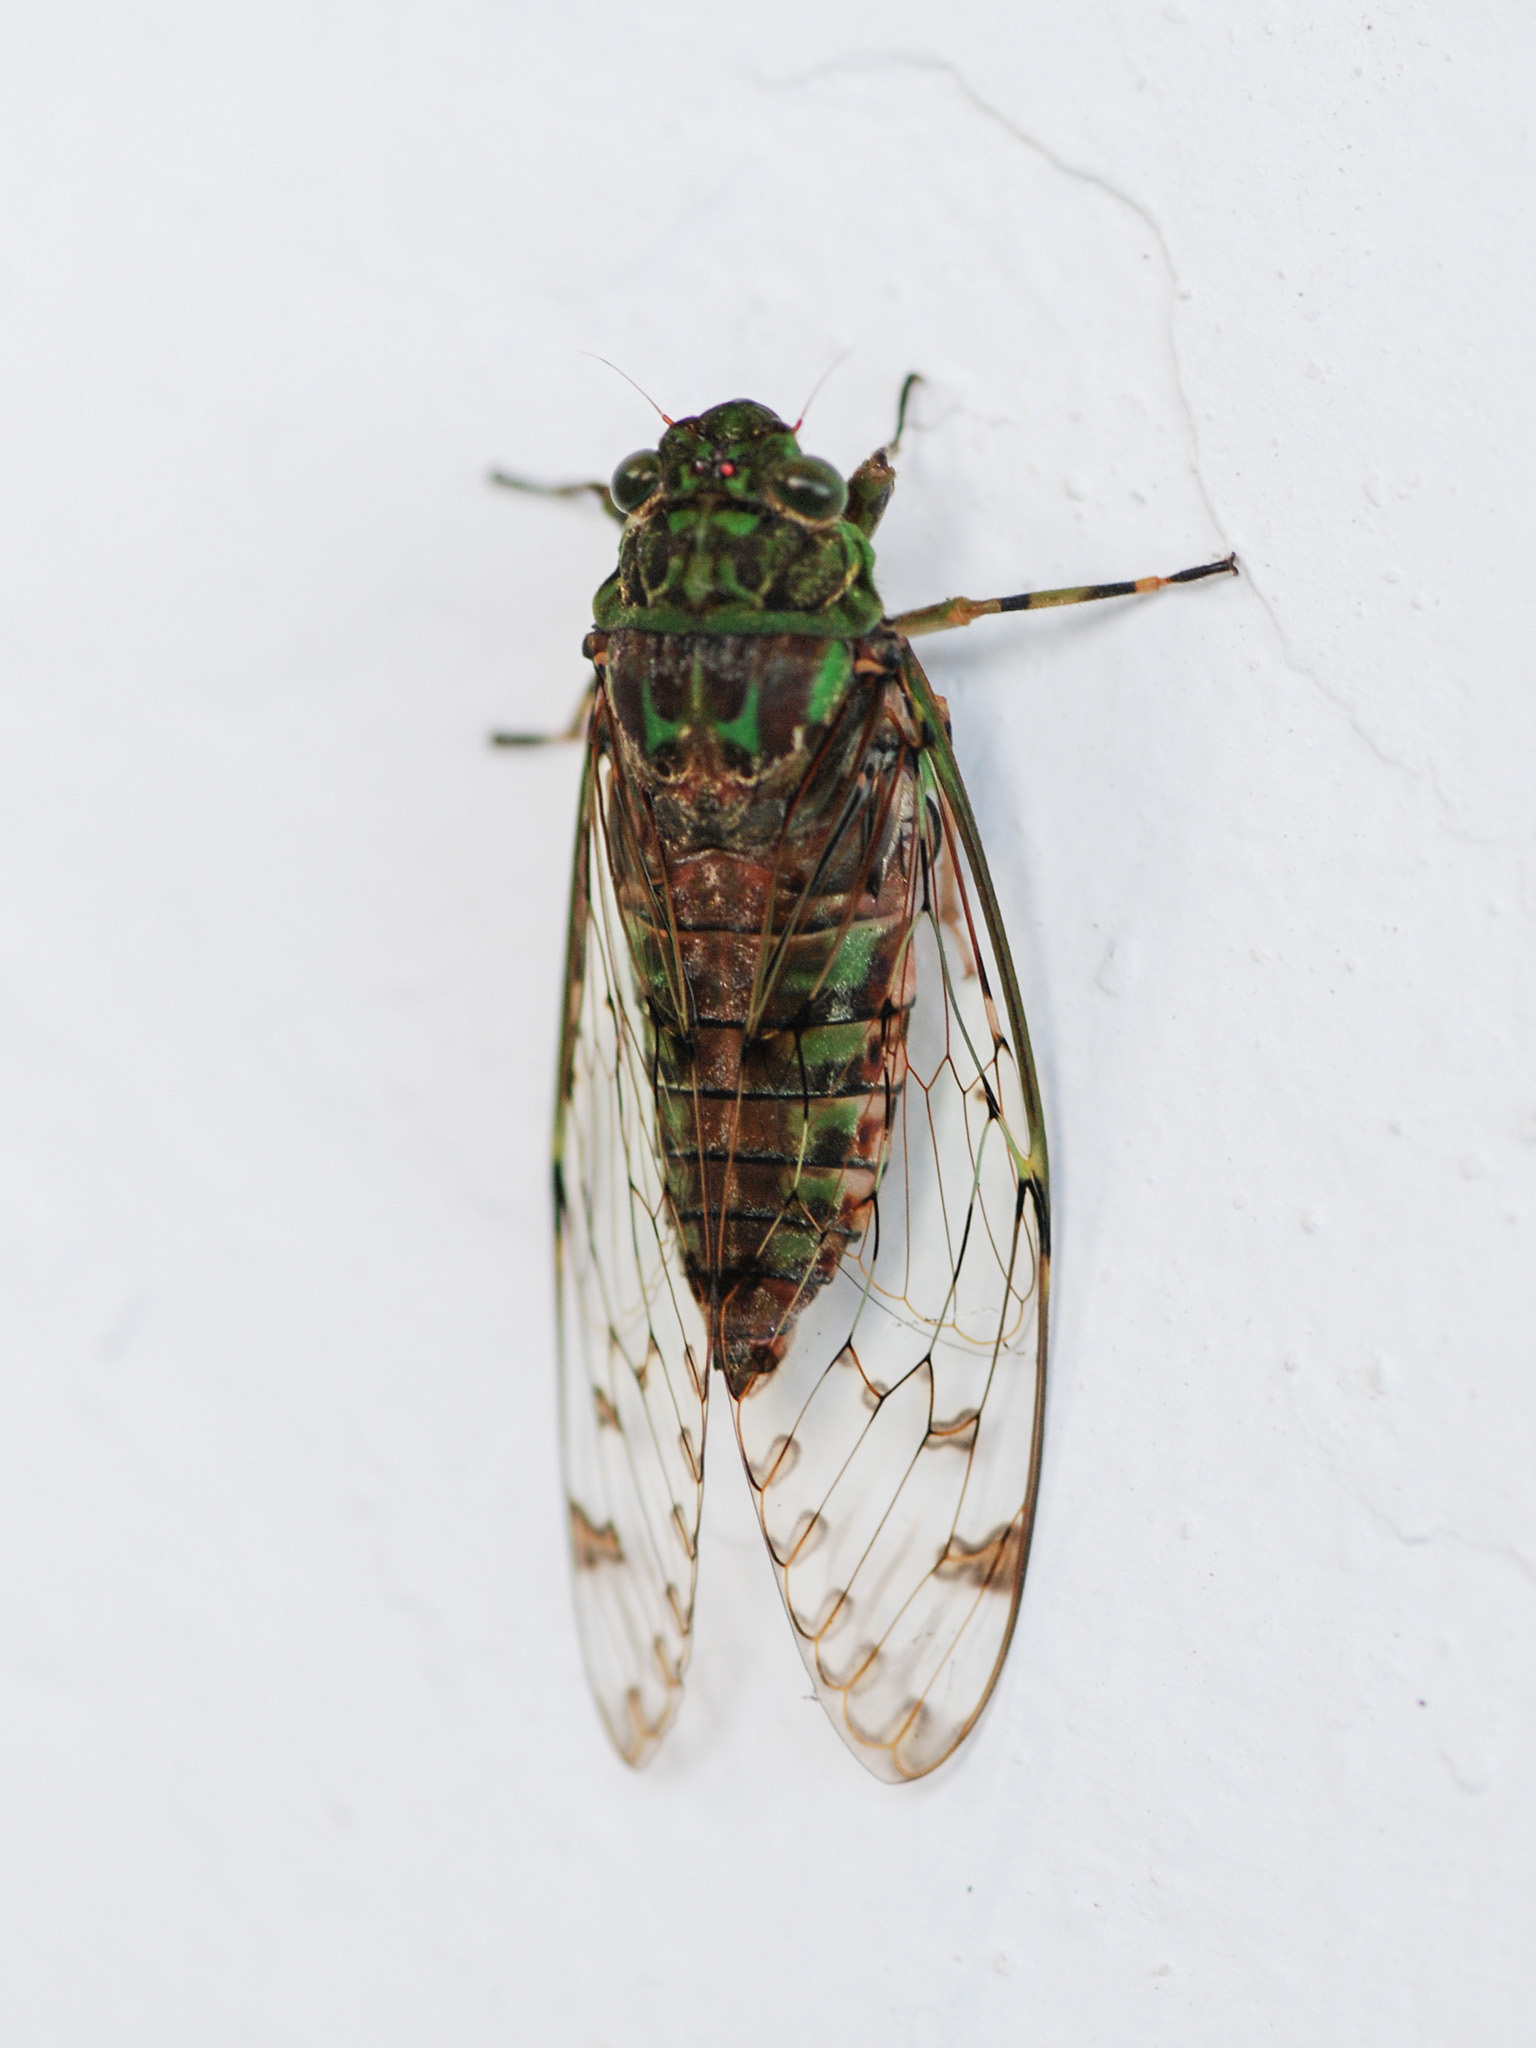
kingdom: Animalia
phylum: Arthropoda
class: Insecta
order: Hemiptera
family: Cicadidae
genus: Terpnosia
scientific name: Terpnosia lactea
